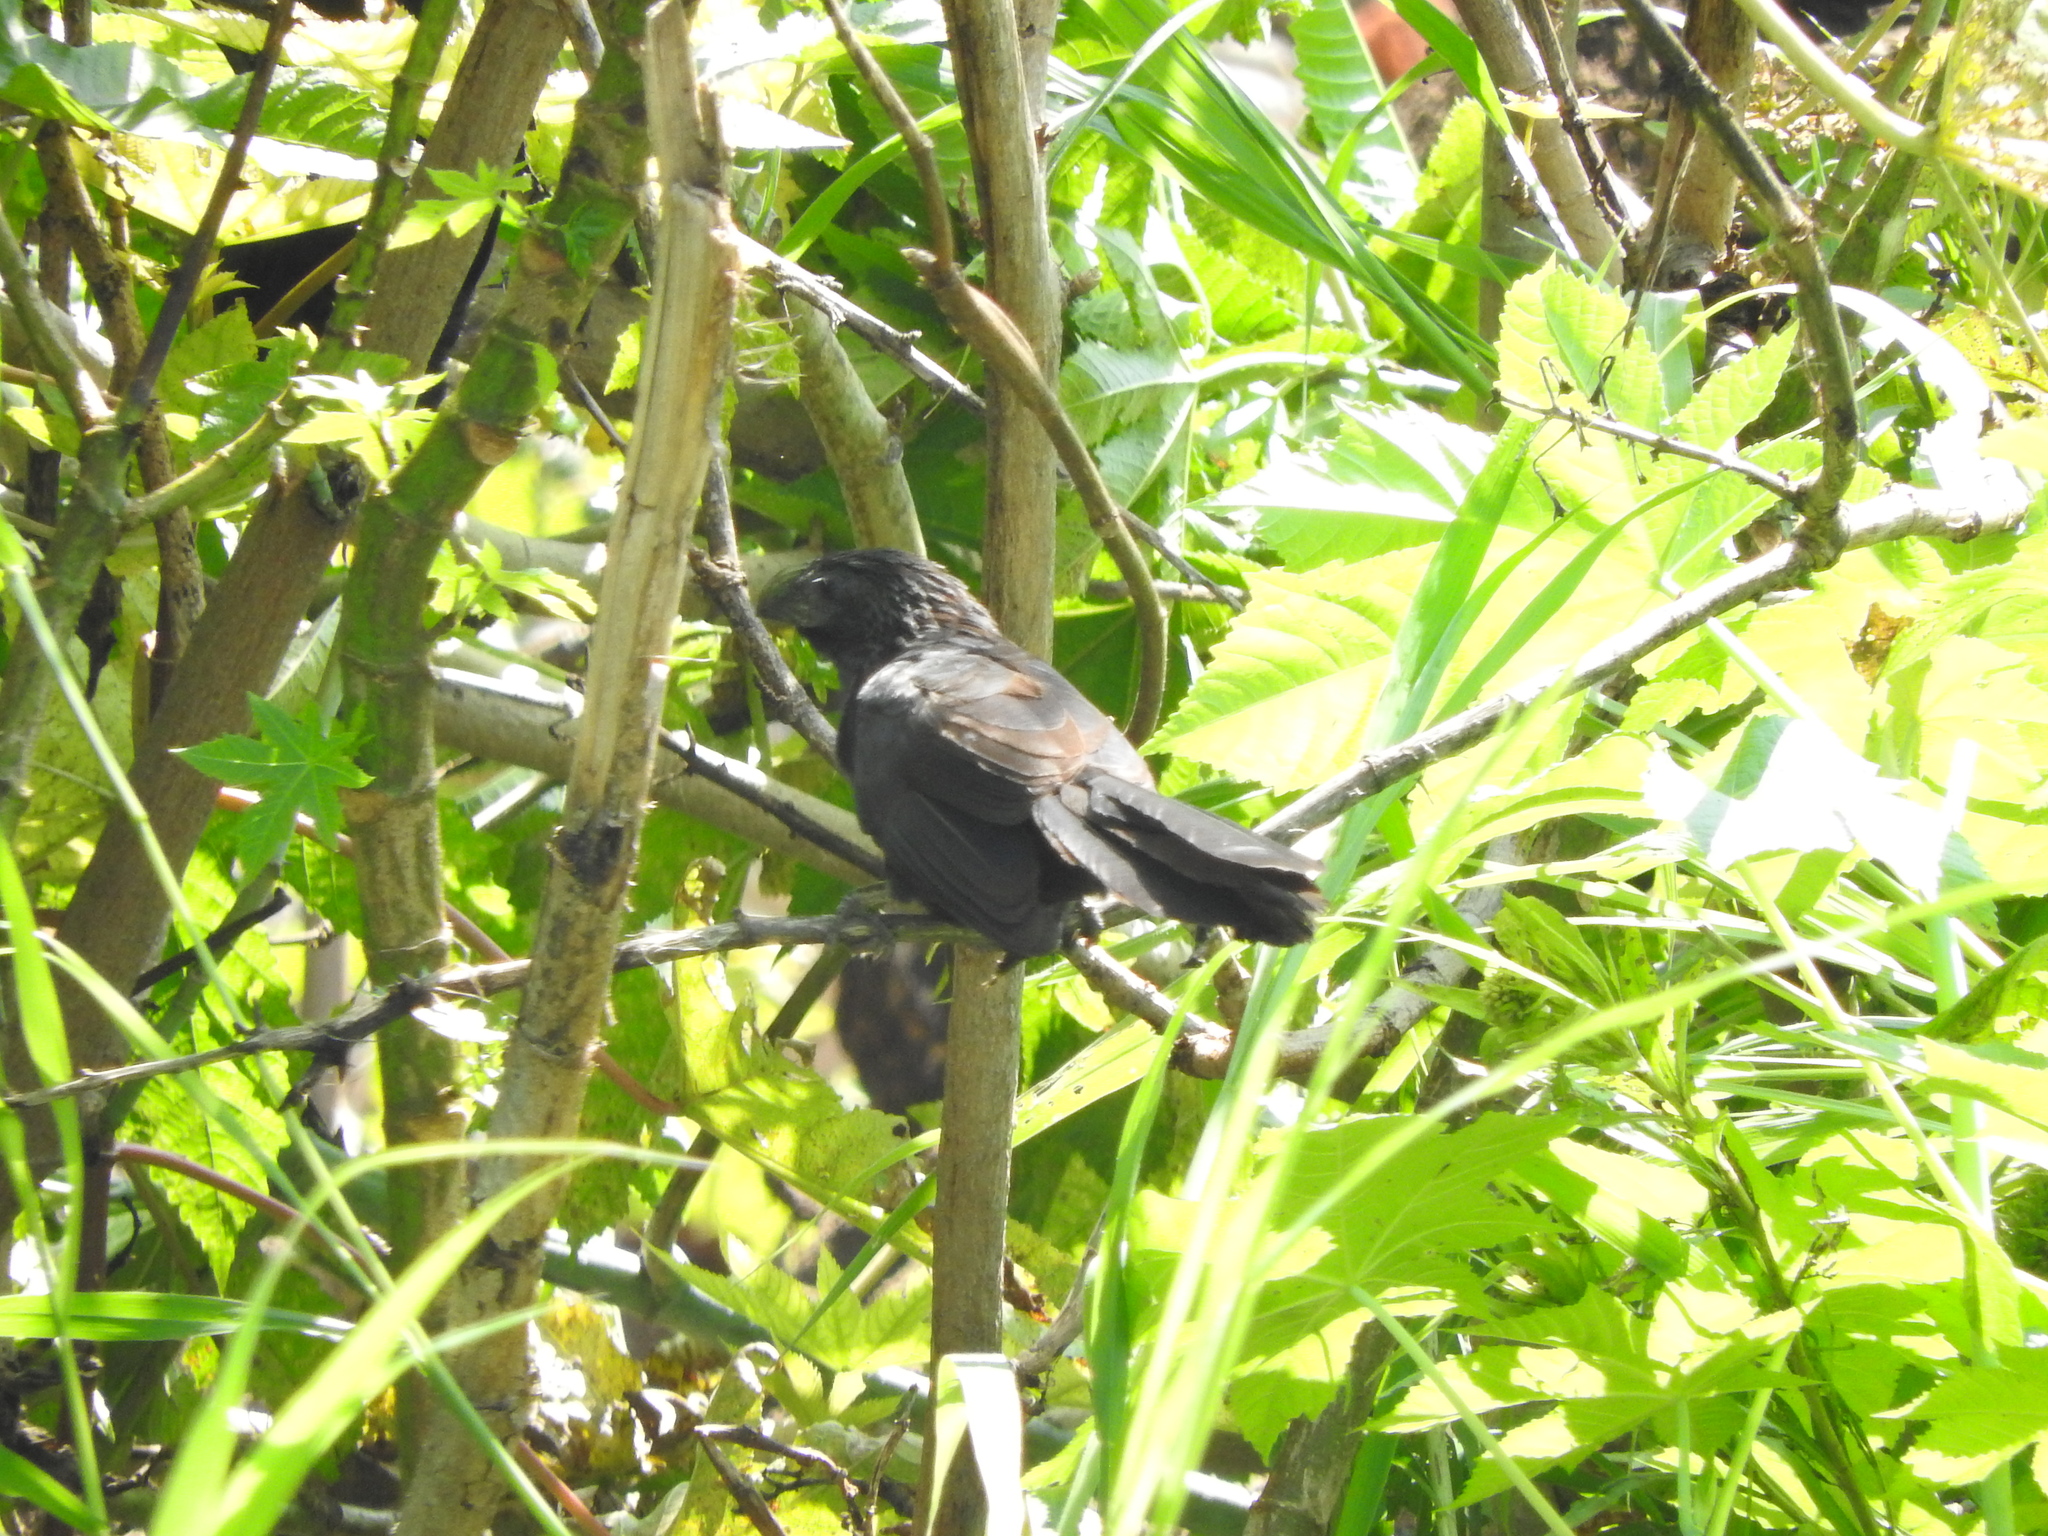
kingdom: Animalia
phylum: Chordata
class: Aves
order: Cuculiformes
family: Cuculidae
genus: Crotophaga
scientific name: Crotophaga sulcirostris
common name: Groove-billed ani
